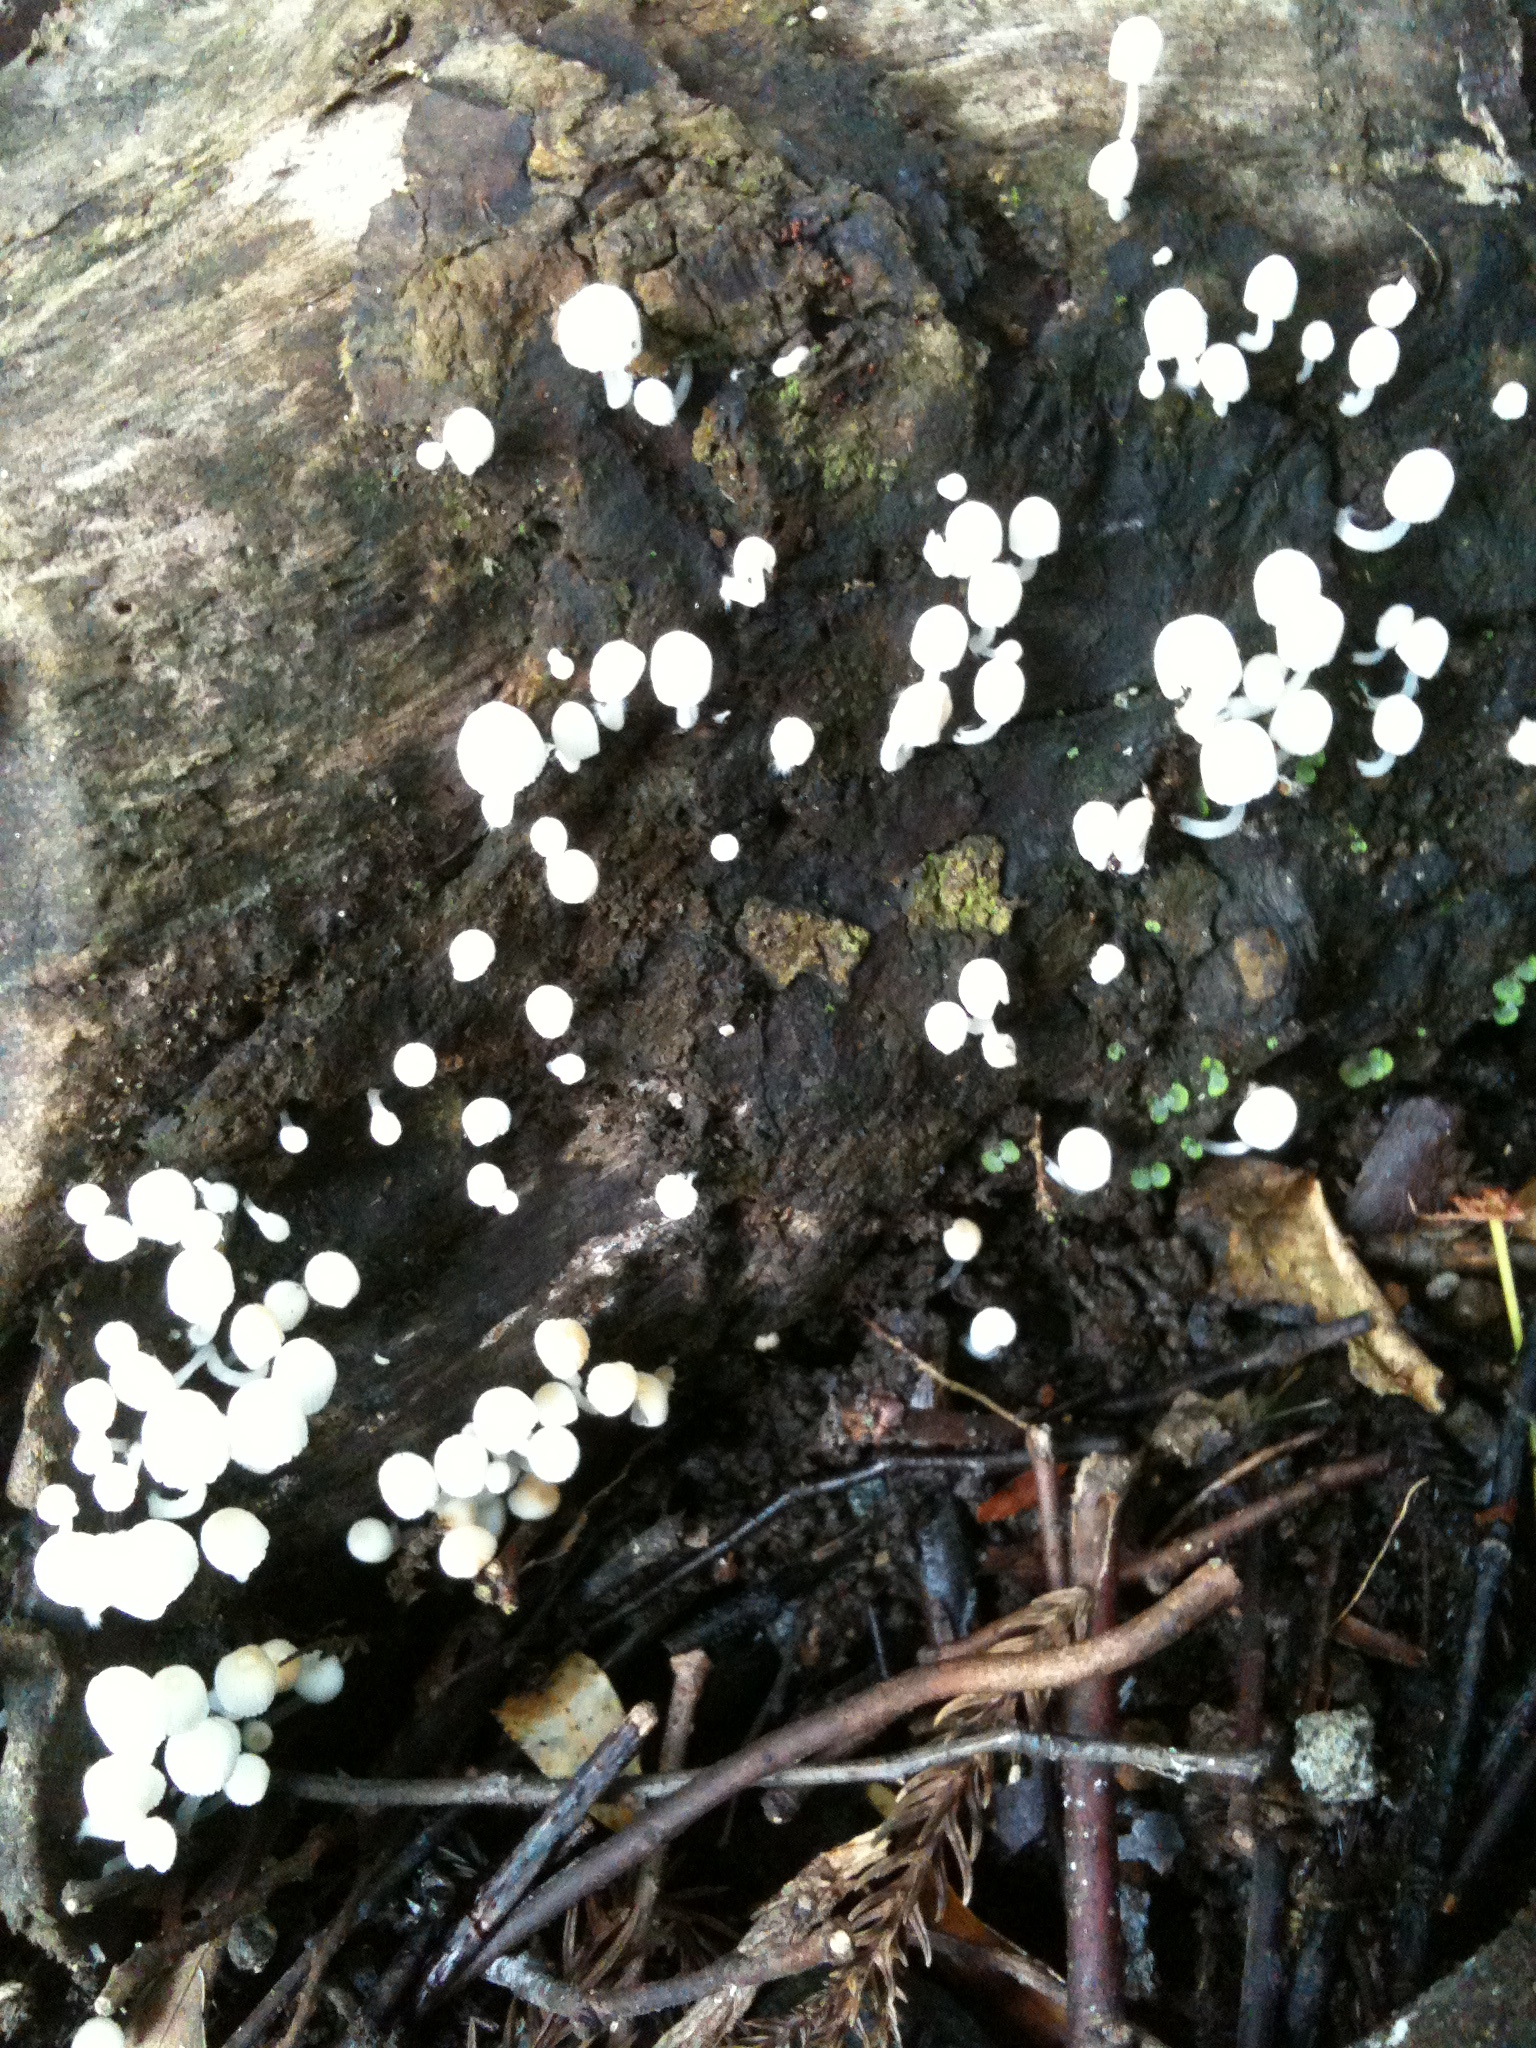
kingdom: Fungi
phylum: Basidiomycota
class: Agaricomycetes
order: Agaricales
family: Psathyrellaceae
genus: Coprinellus
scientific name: Coprinellus disseminatus
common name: Fairies' bonnets
